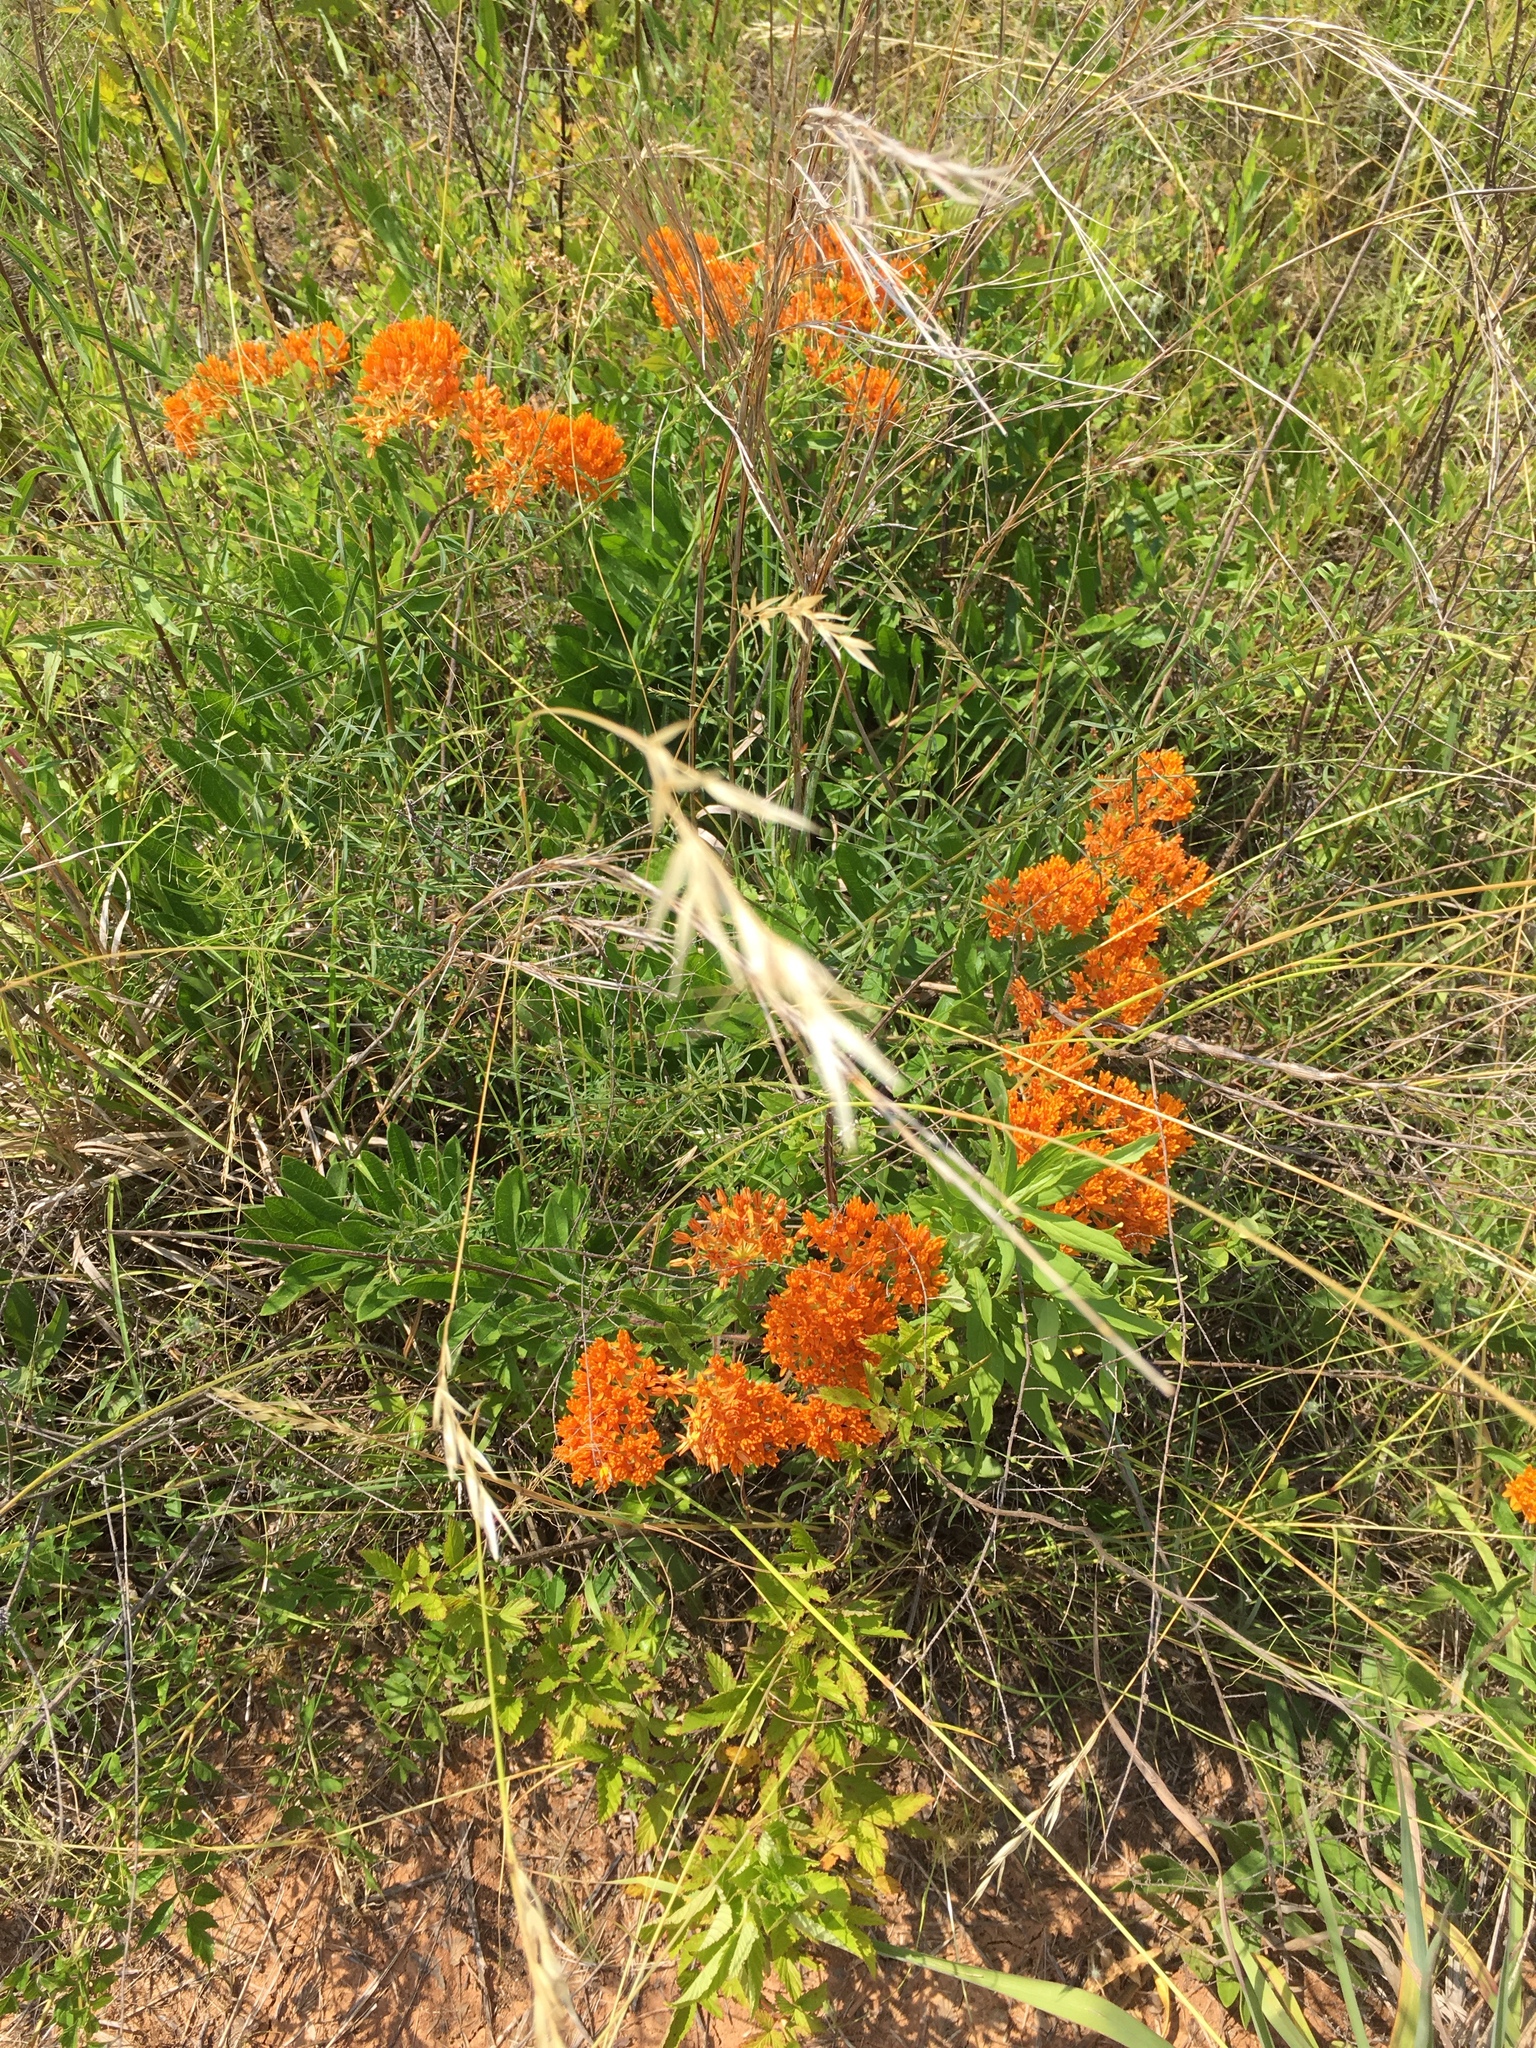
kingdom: Plantae
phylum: Tracheophyta
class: Magnoliopsida
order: Gentianales
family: Apocynaceae
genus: Asclepias
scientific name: Asclepias tuberosa
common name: Butterfly milkweed
